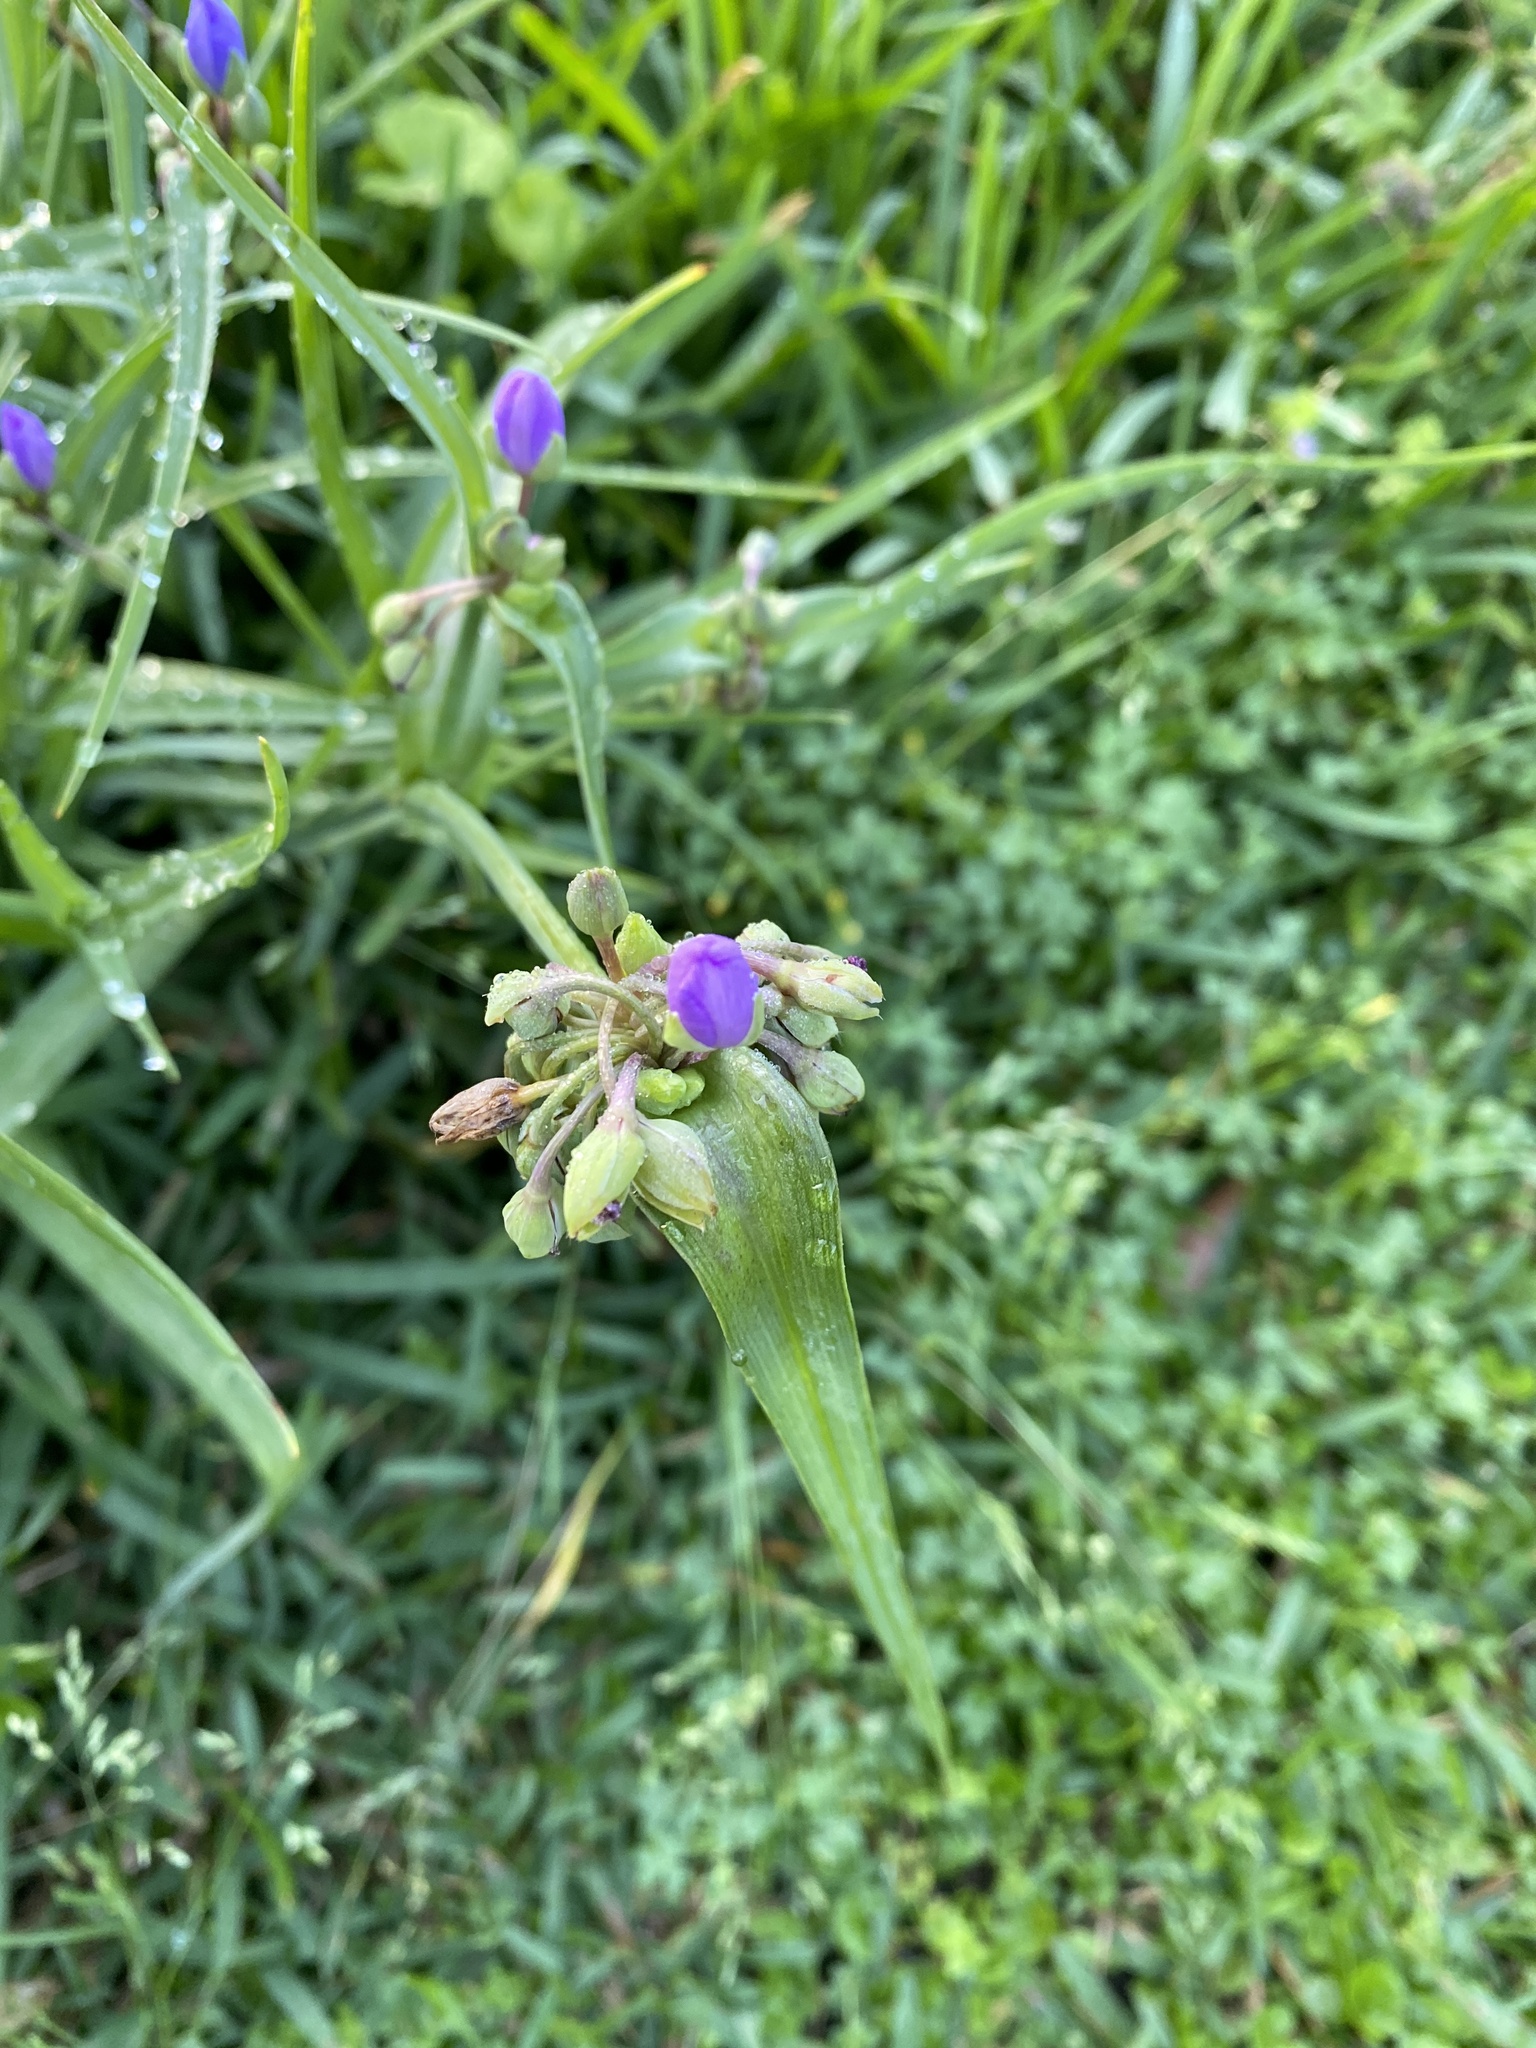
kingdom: Plantae
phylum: Tracheophyta
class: Liliopsida
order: Commelinales
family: Commelinaceae
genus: Tradescantia
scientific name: Tradescantia ohiensis
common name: Ohio spiderwort
